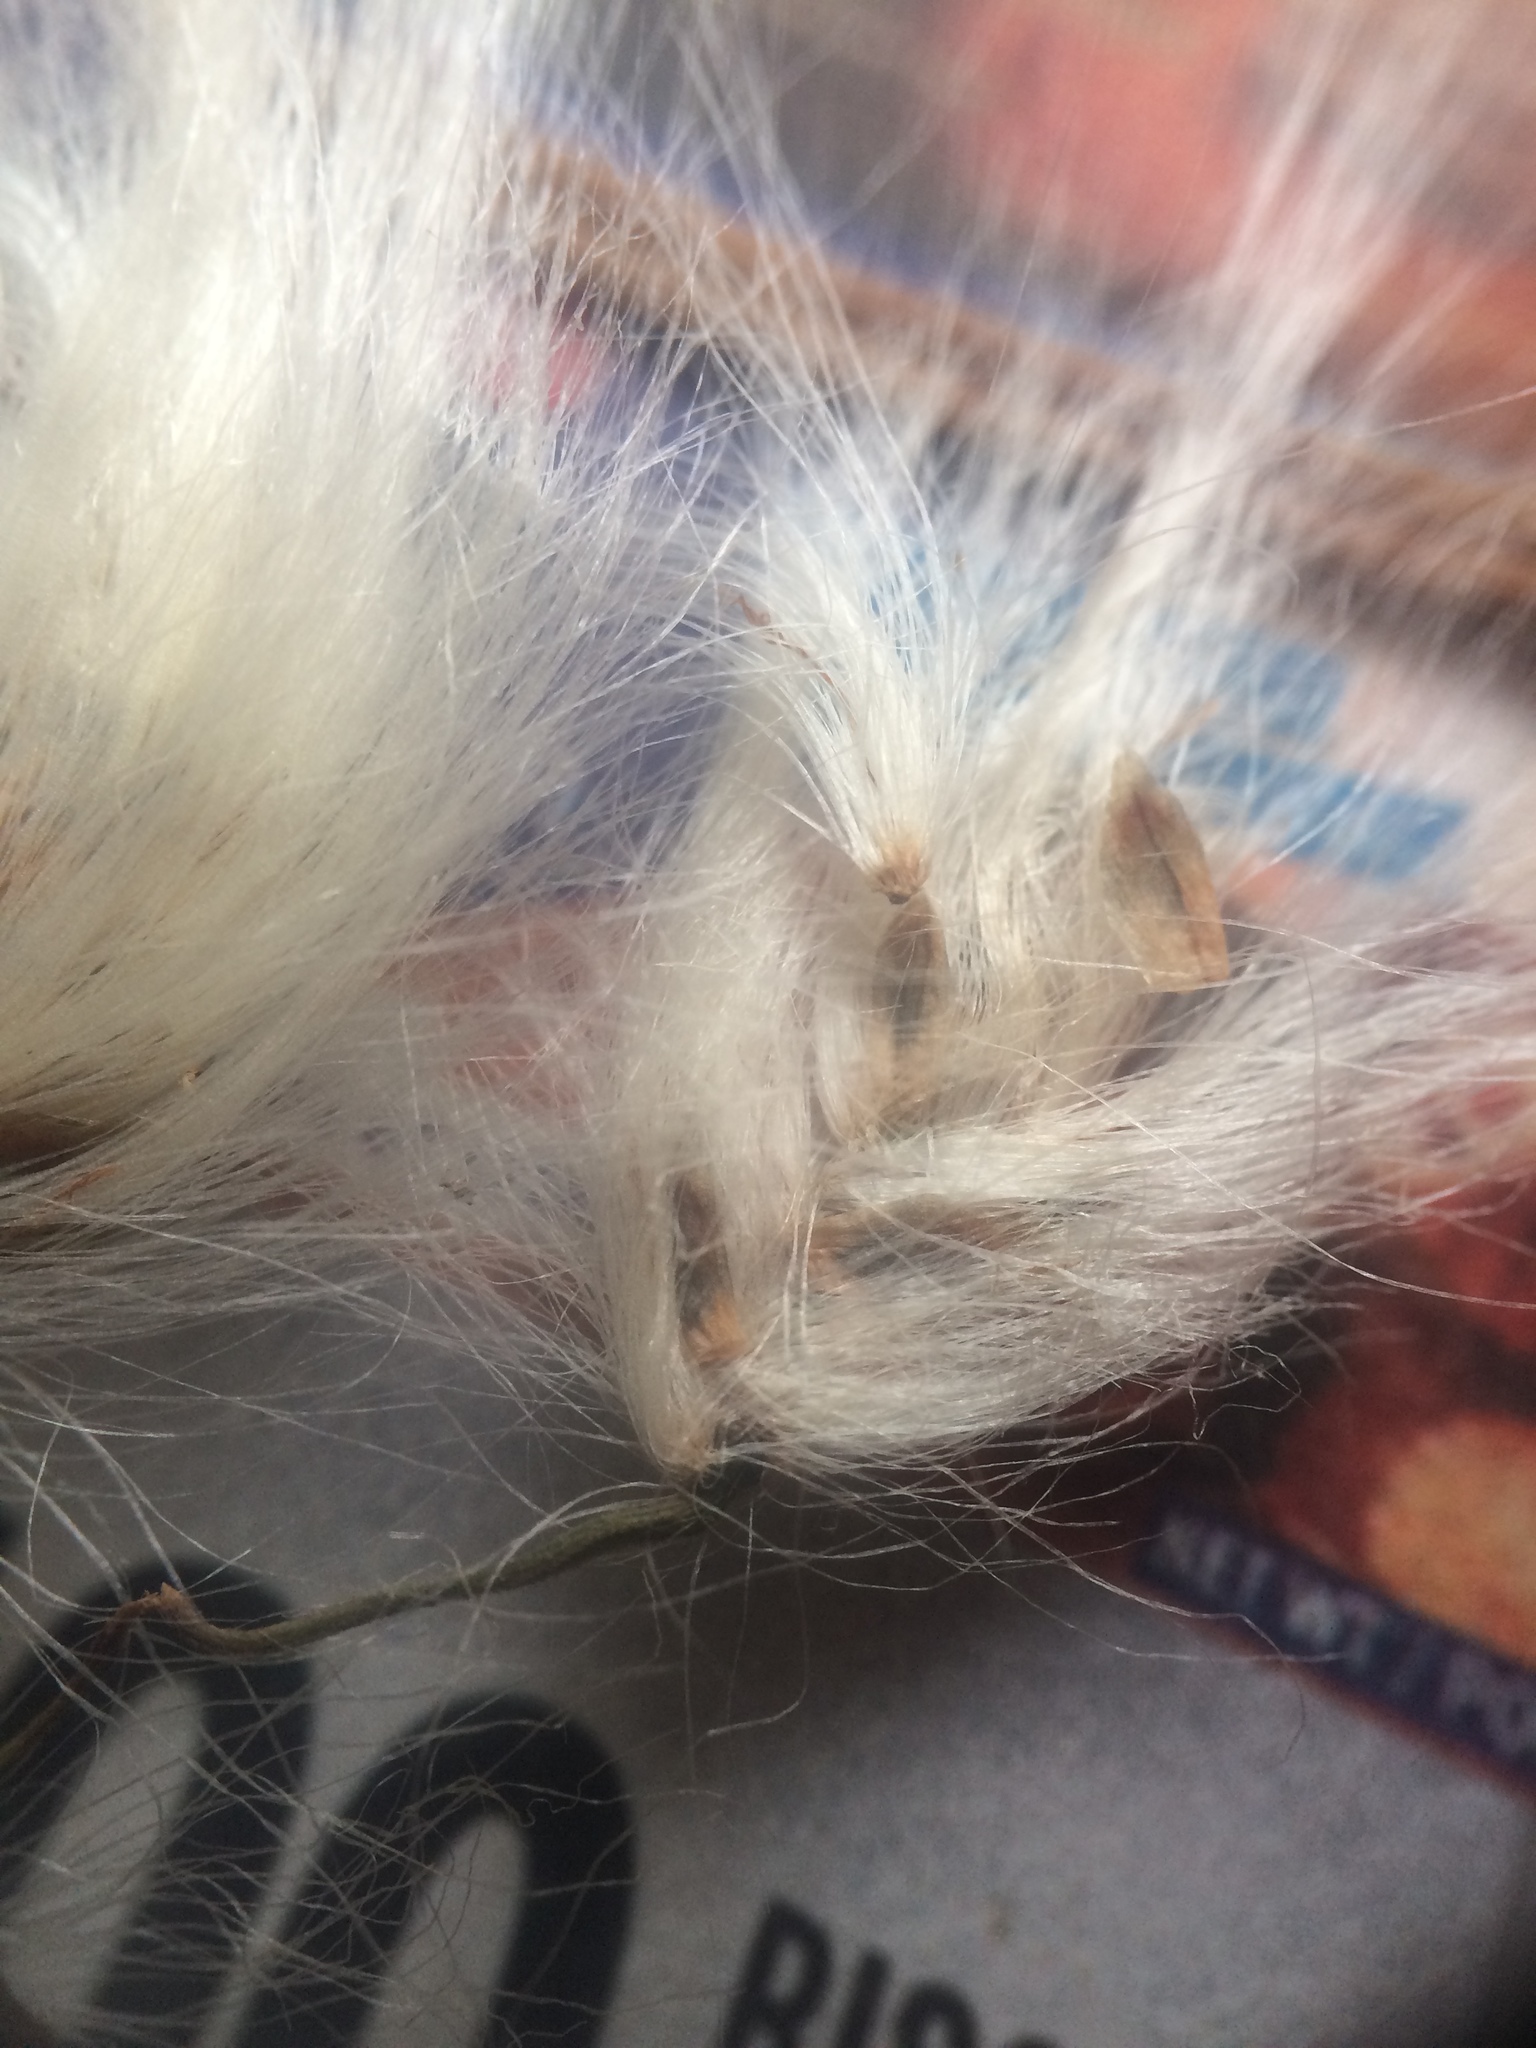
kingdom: Plantae
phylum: Tracheophyta
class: Liliopsida
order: Poales
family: Cyperaceae
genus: Eriophorum
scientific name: Eriophorum angustifolium
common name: Common cottongrass
